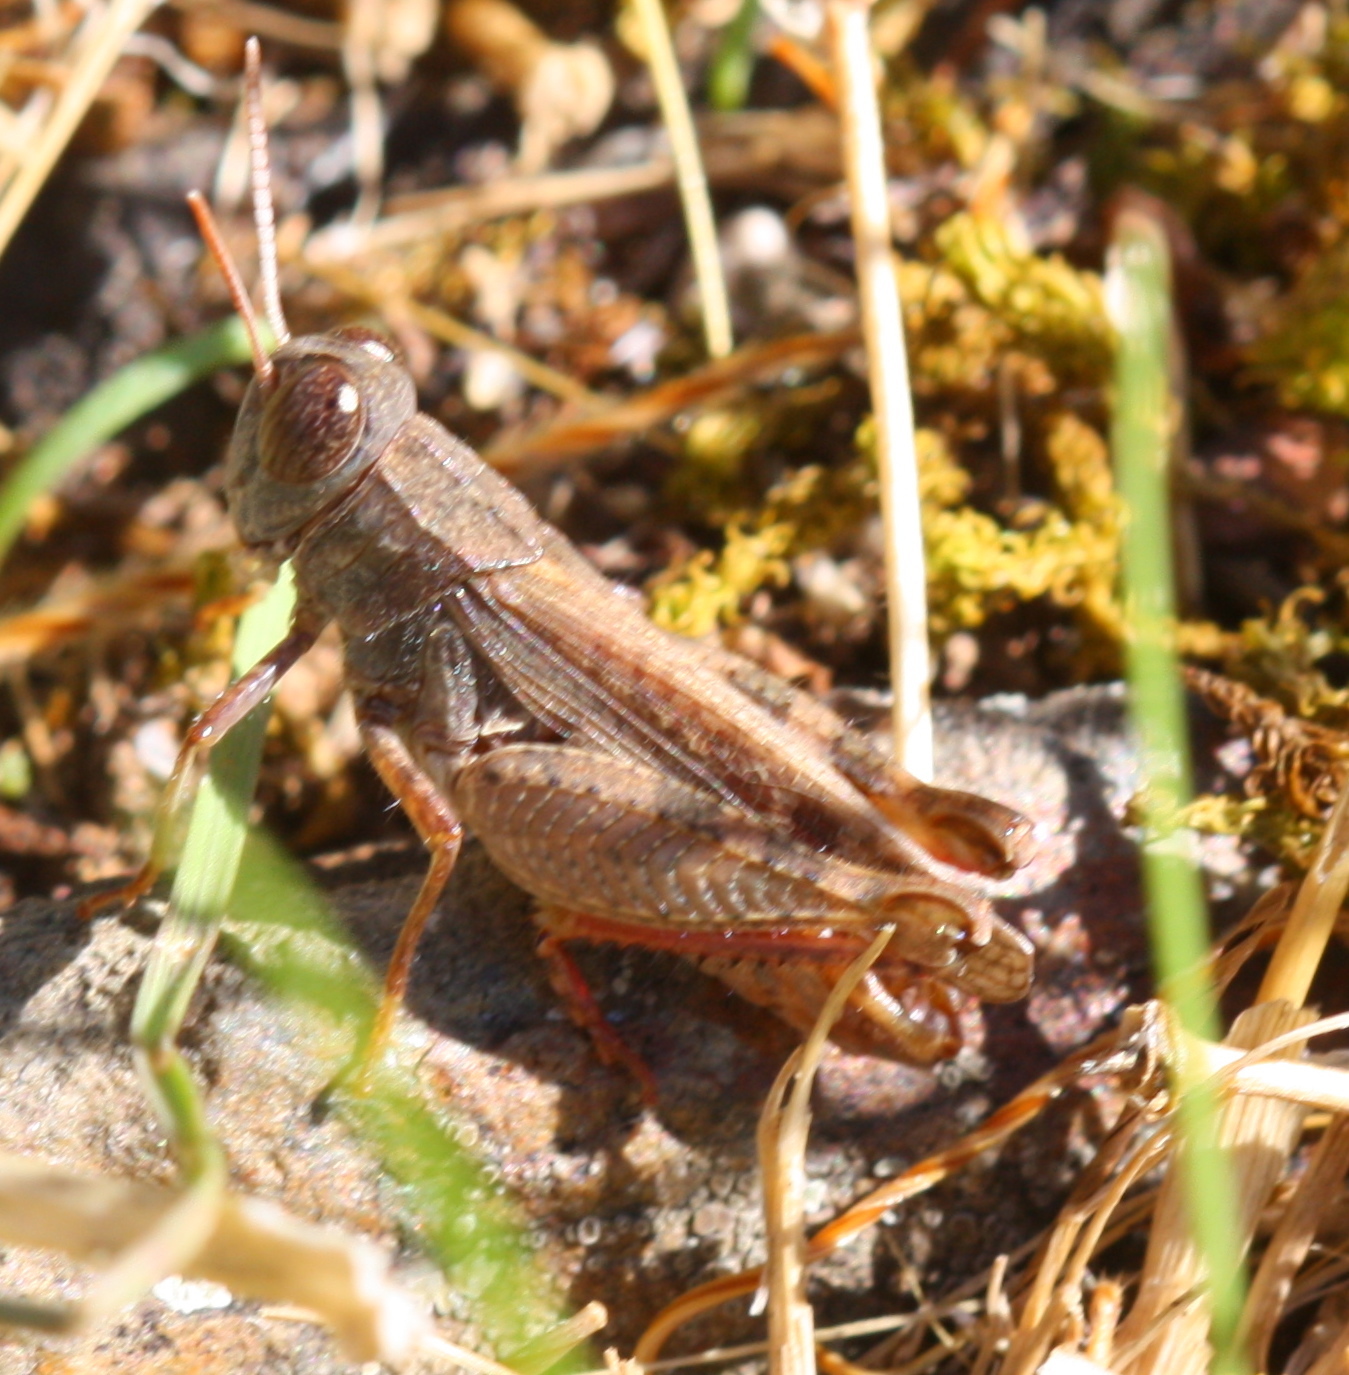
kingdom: Animalia
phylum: Arthropoda
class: Insecta
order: Orthoptera
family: Acrididae
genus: Calliptamus
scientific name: Calliptamus barbarus
